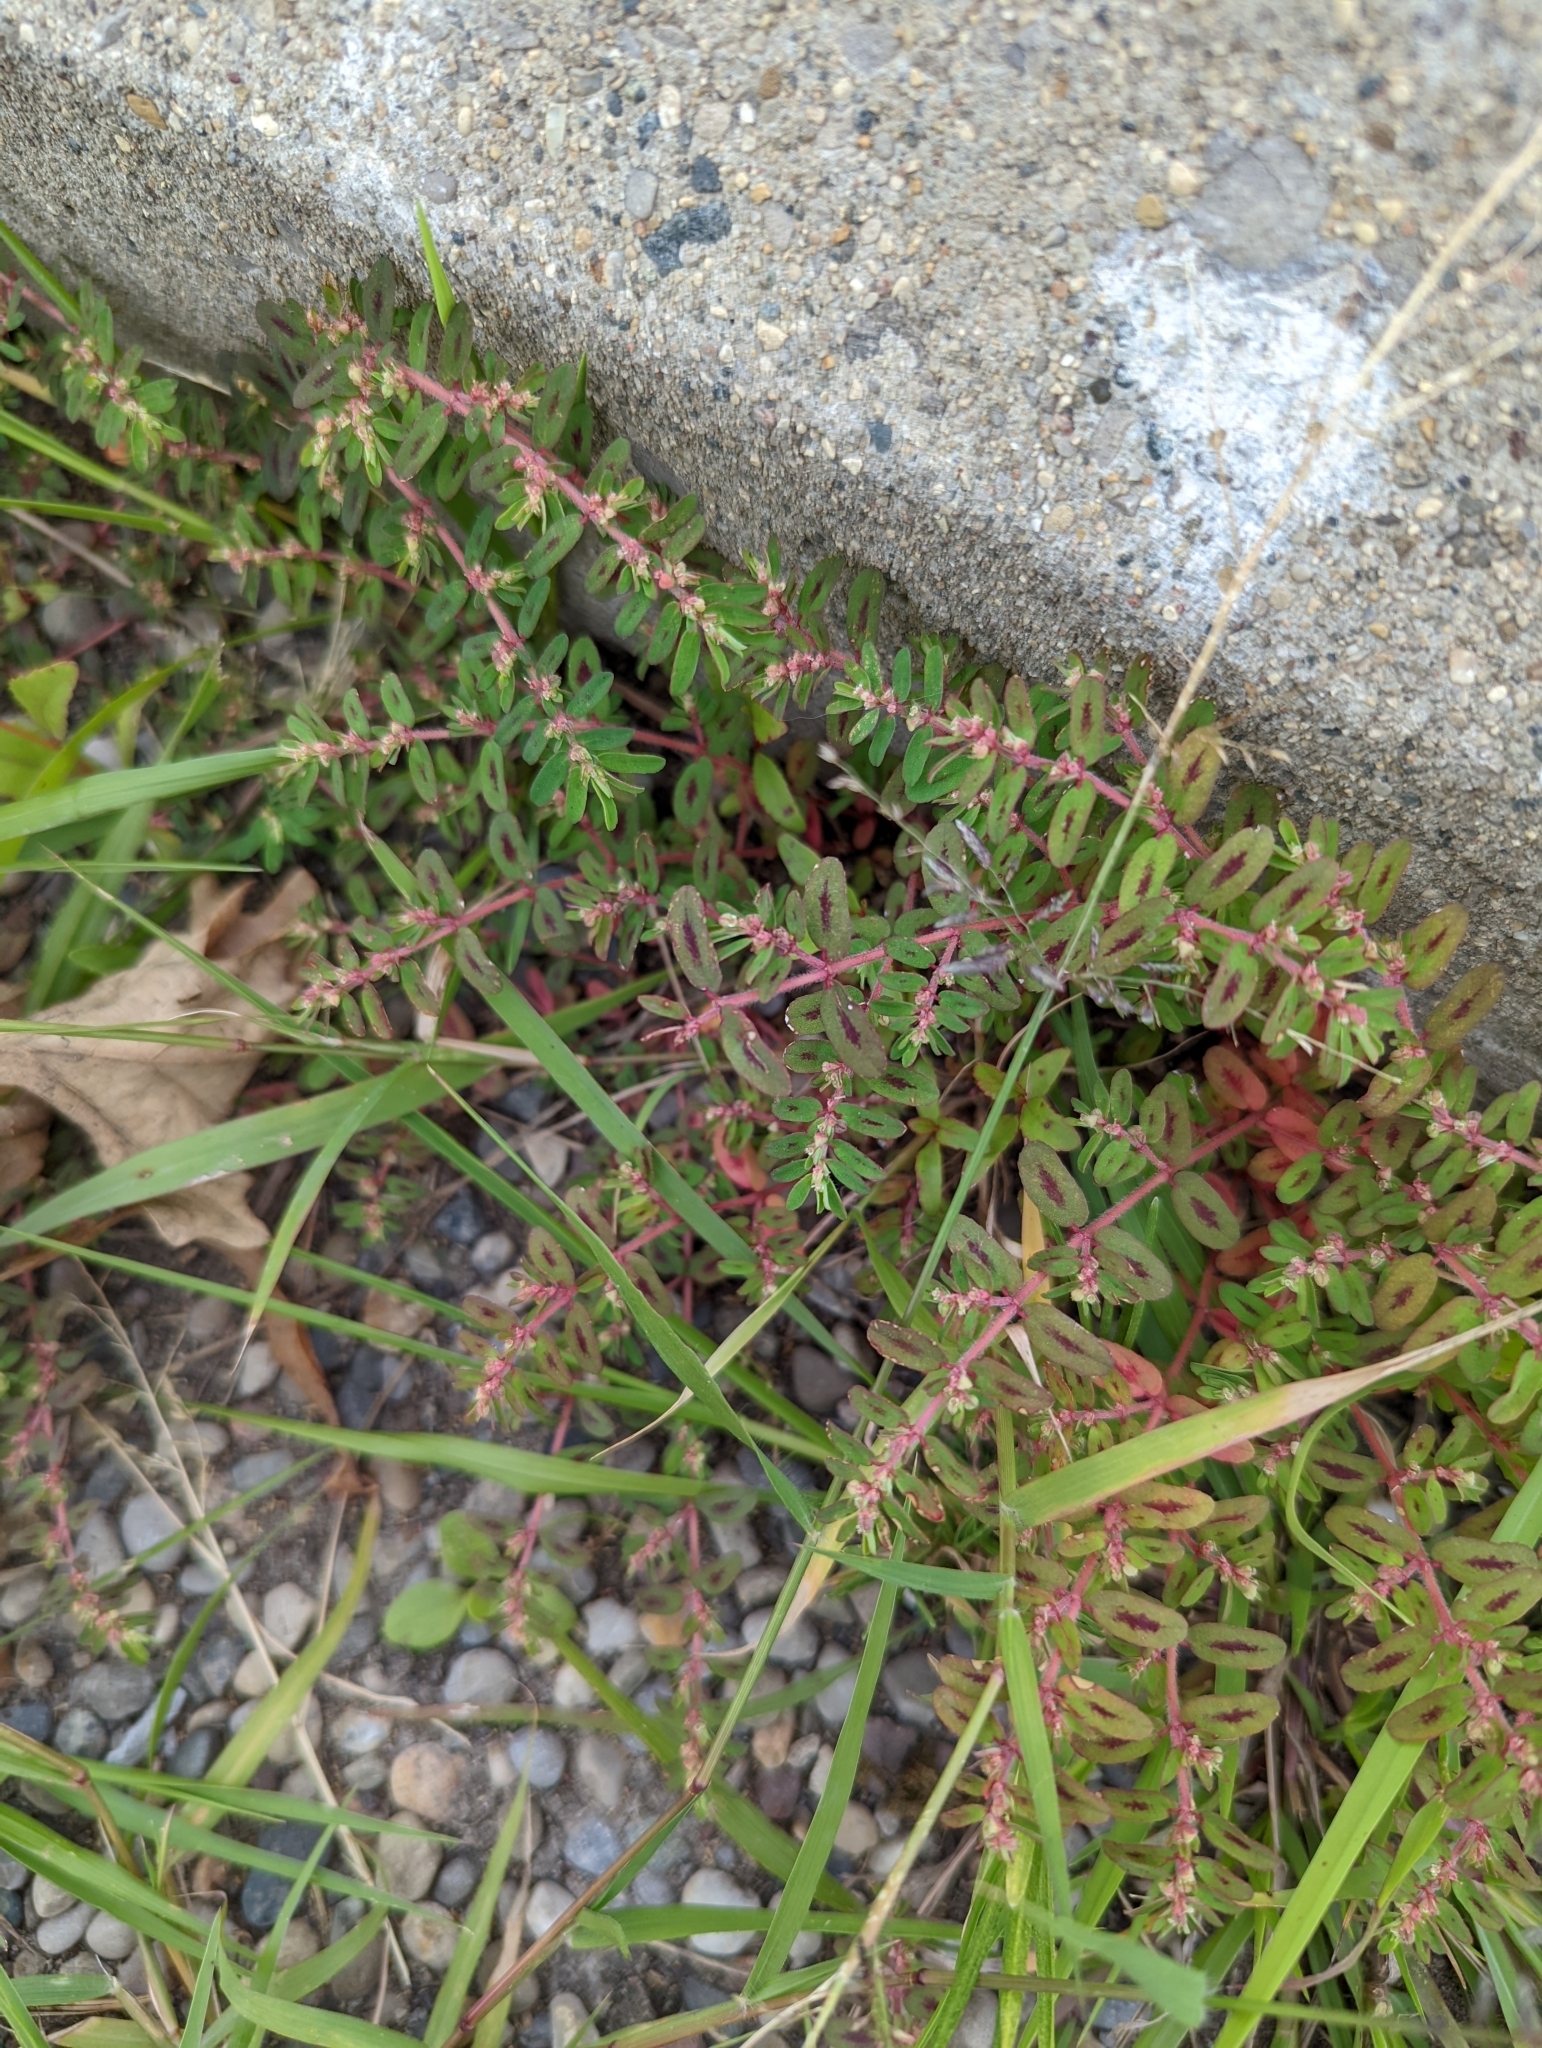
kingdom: Plantae
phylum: Tracheophyta
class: Magnoliopsida
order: Malpighiales
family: Euphorbiaceae
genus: Euphorbia
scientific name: Euphorbia maculata
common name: Spotted spurge
